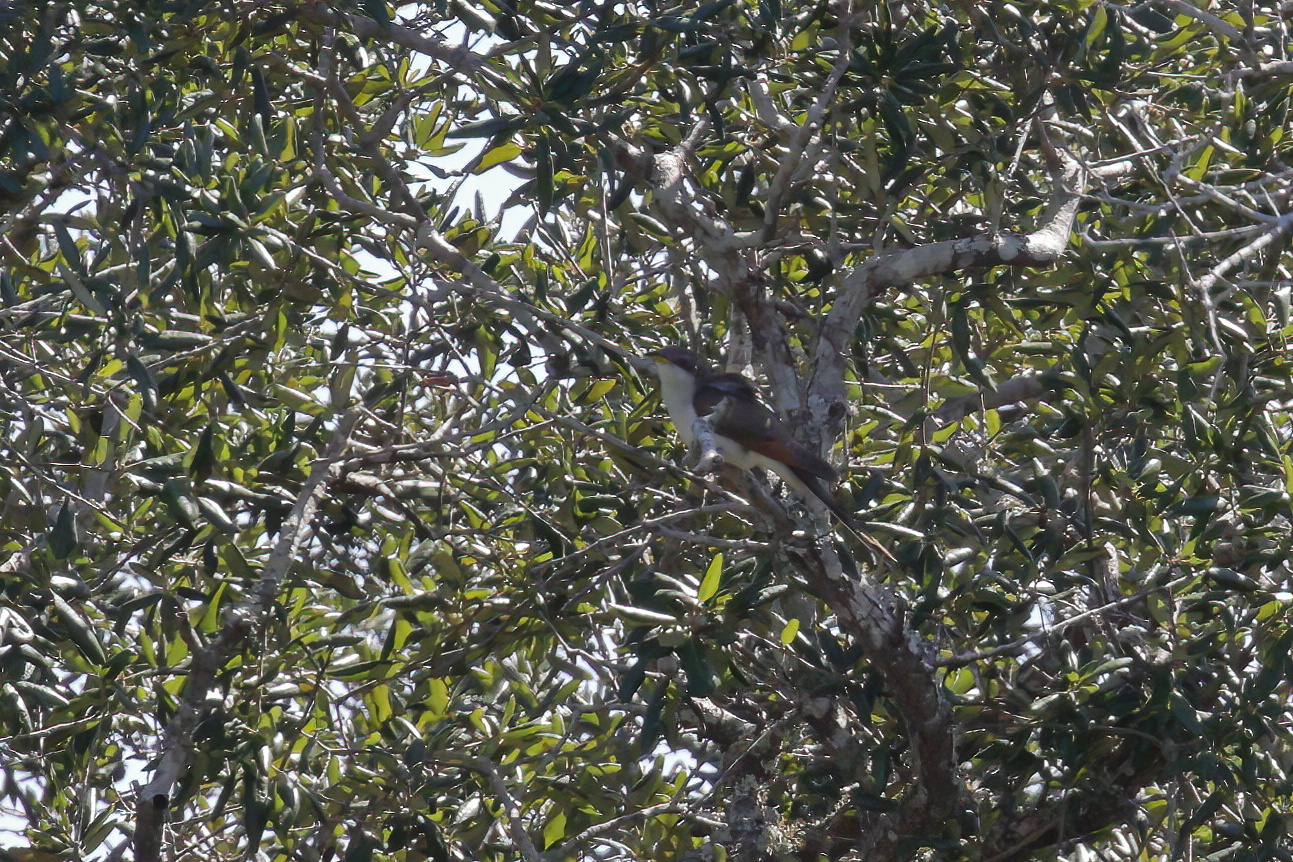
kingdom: Animalia
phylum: Chordata
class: Aves
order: Cuculiformes
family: Cuculidae
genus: Coccyzus
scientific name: Coccyzus americanus
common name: Yellow-billed cuckoo
